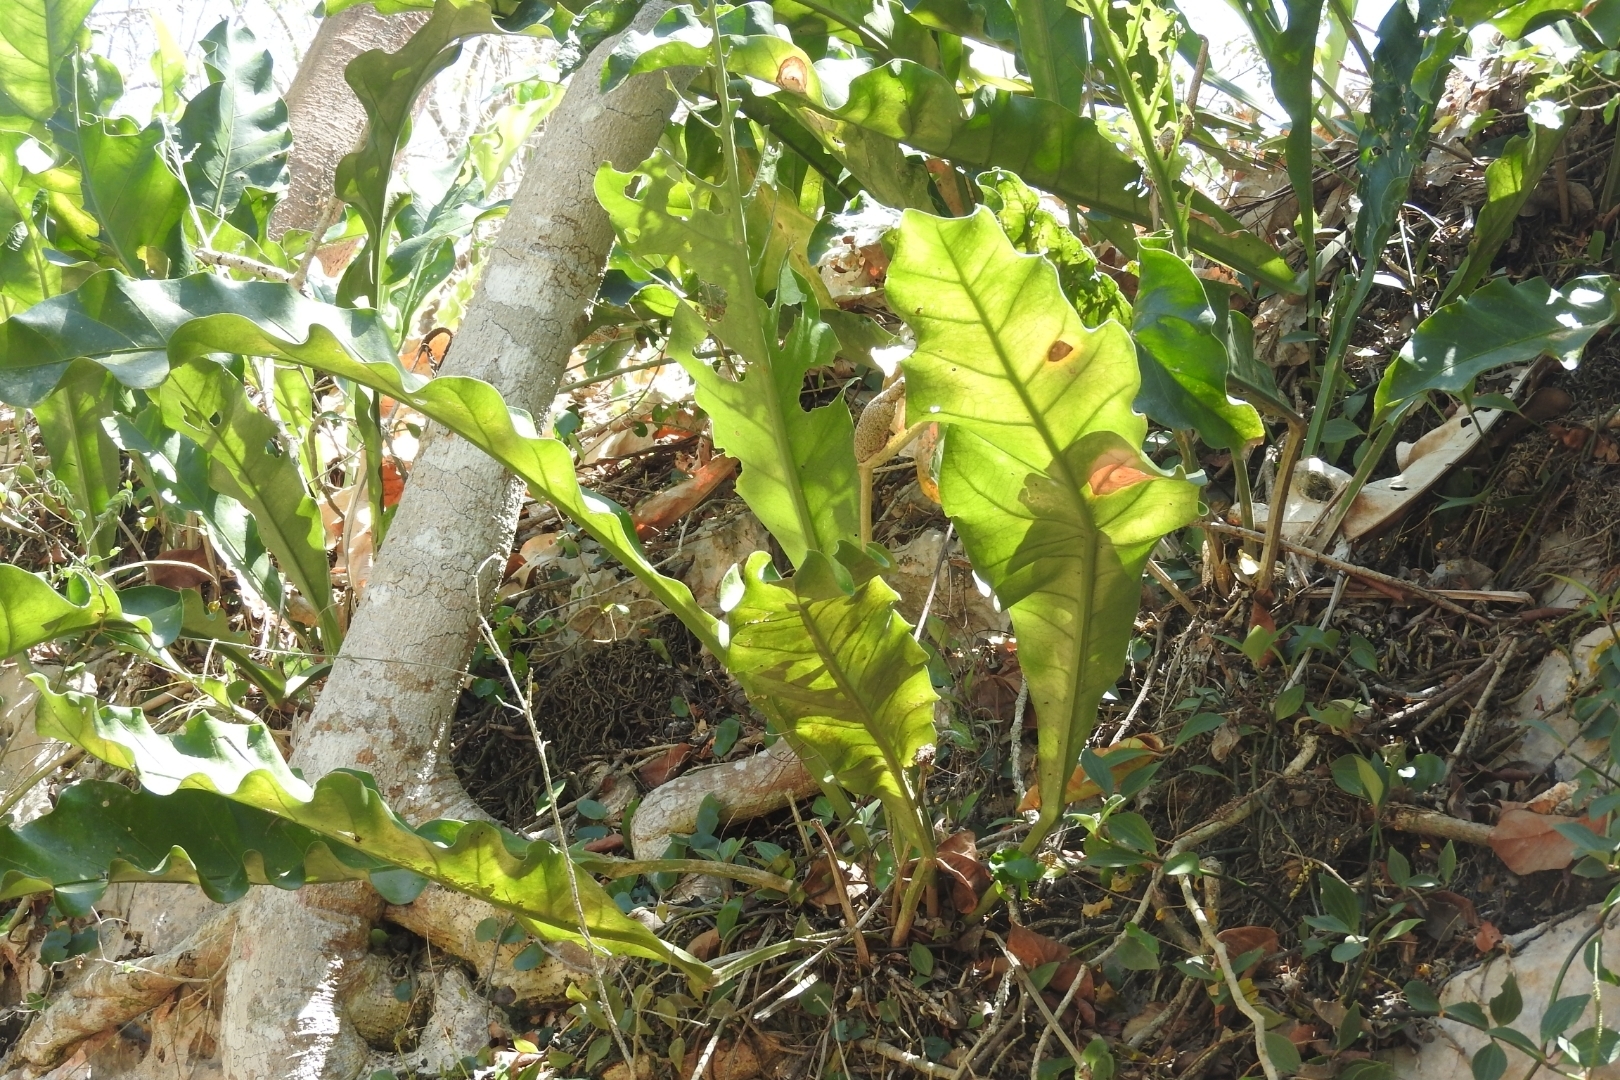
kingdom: Plantae
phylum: Tracheophyta
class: Liliopsida
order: Alismatales
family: Araceae
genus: Anthurium
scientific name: Anthurium schlechtendalii
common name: Laceleaf
